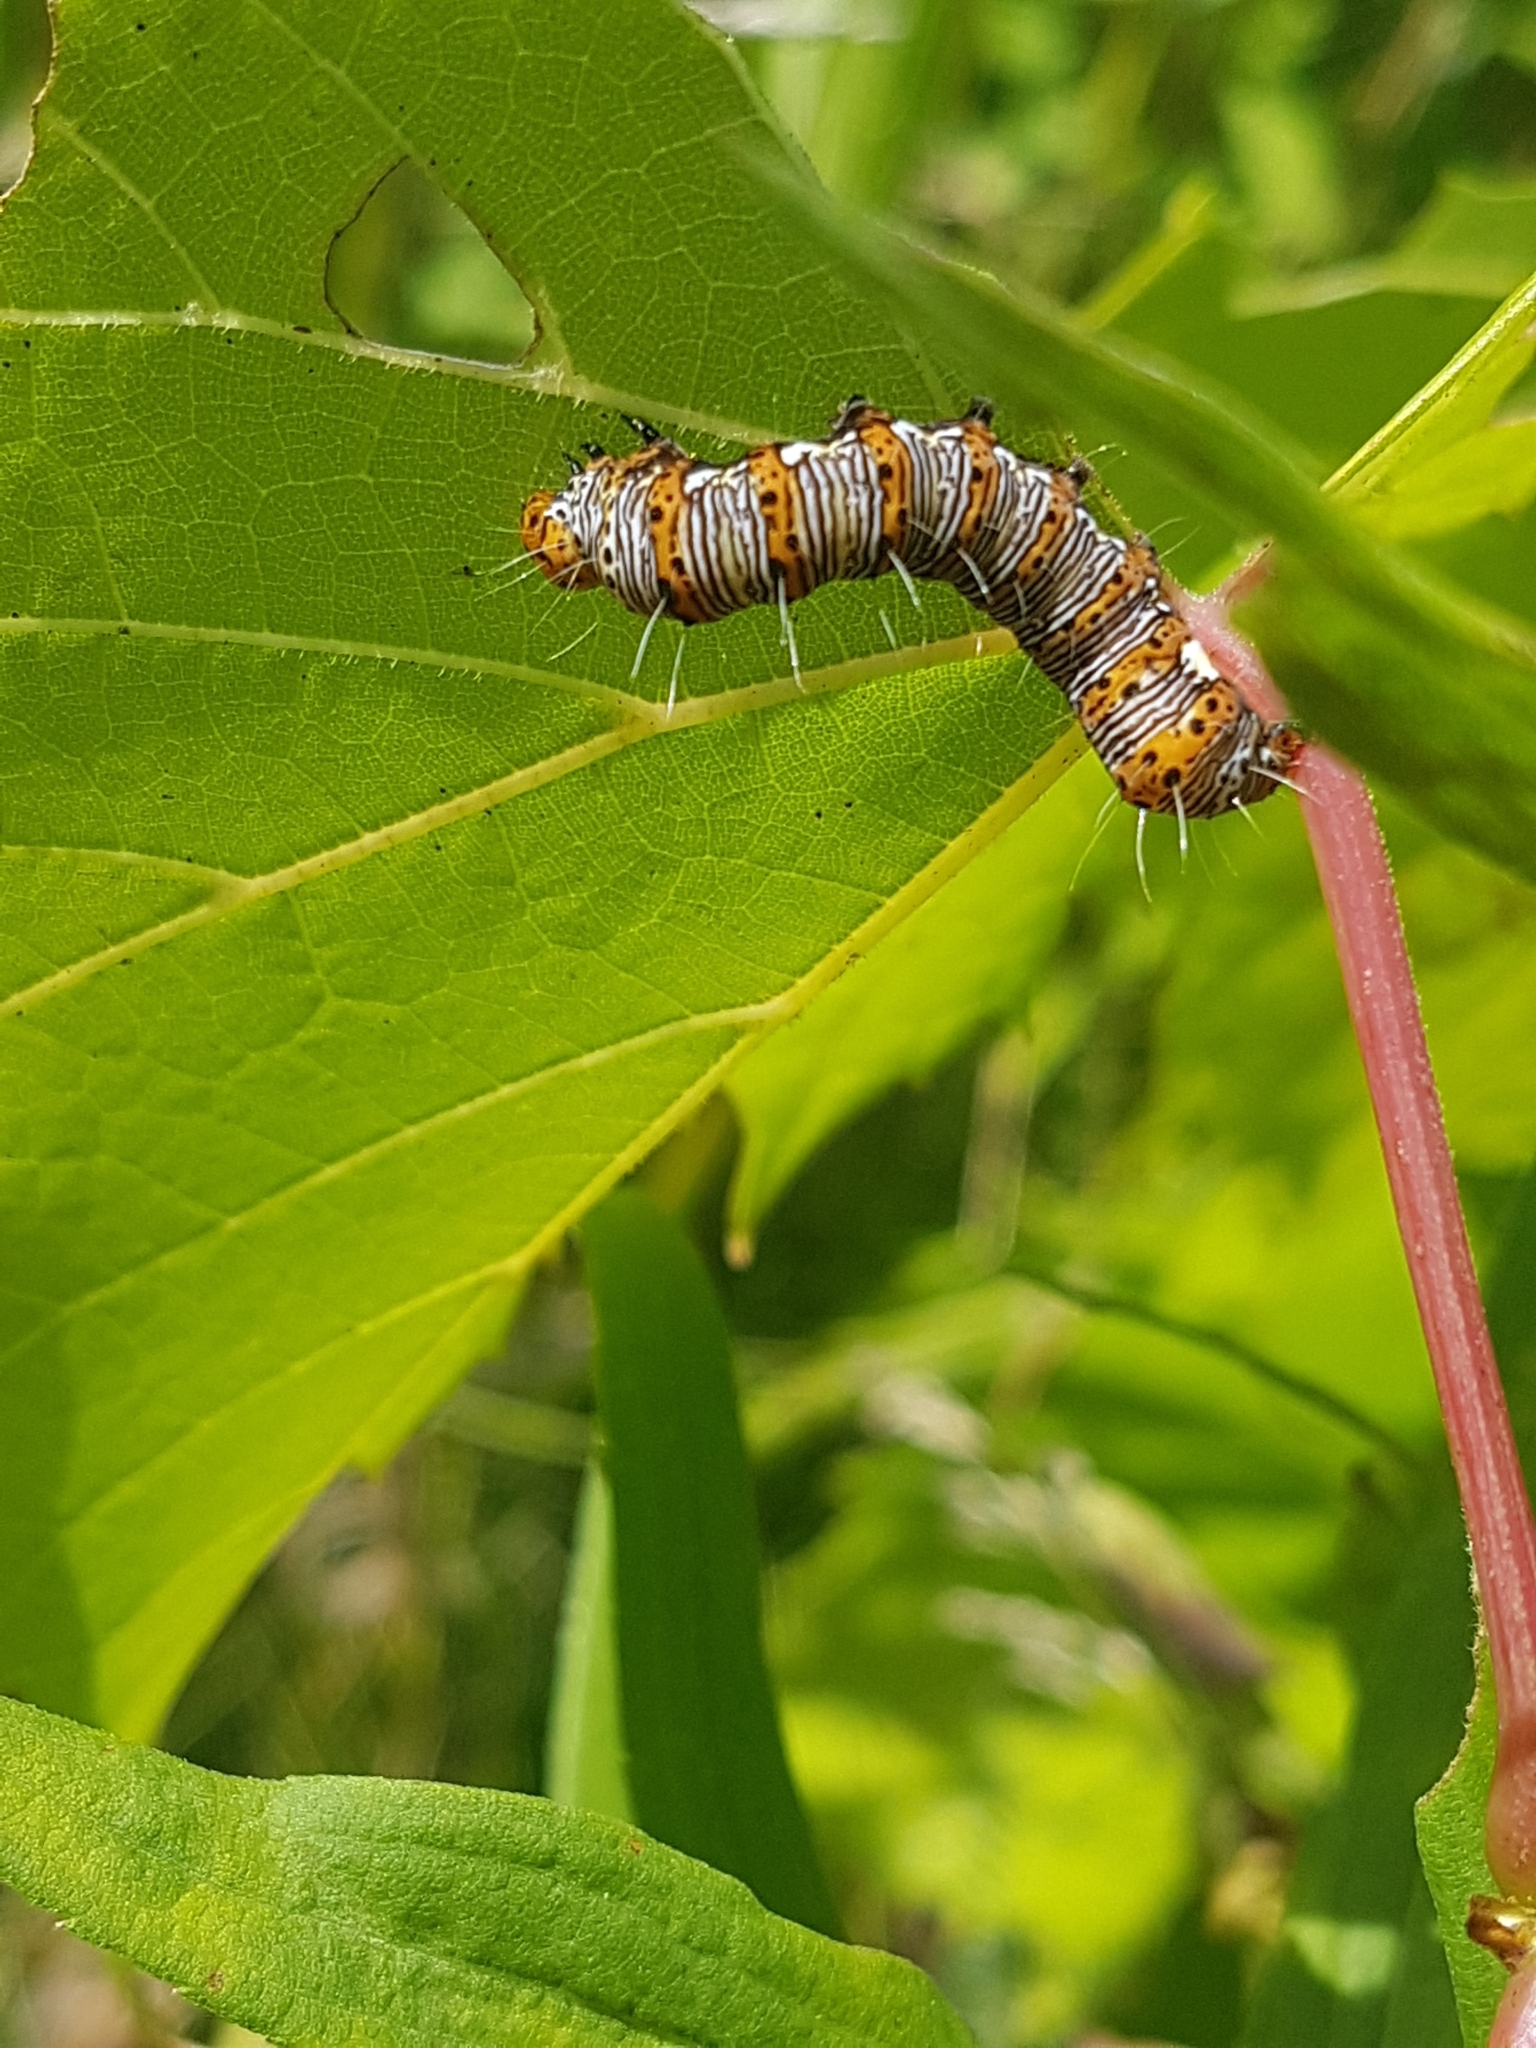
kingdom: Animalia
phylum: Arthropoda
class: Insecta
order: Lepidoptera
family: Noctuidae
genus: Alypia
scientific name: Alypia octomaculata
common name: Eight-spotted forester
